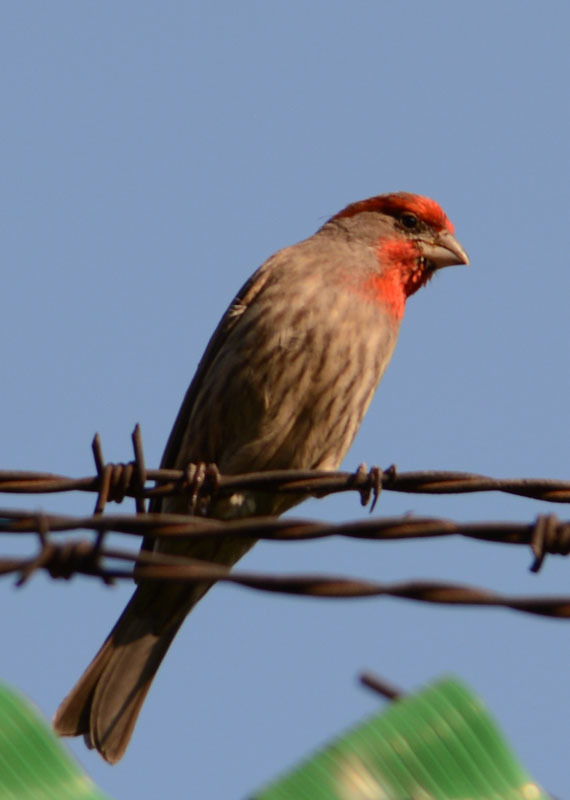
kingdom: Animalia
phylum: Chordata
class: Aves
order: Passeriformes
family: Fringillidae
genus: Haemorhous
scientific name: Haemorhous mexicanus
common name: House finch
